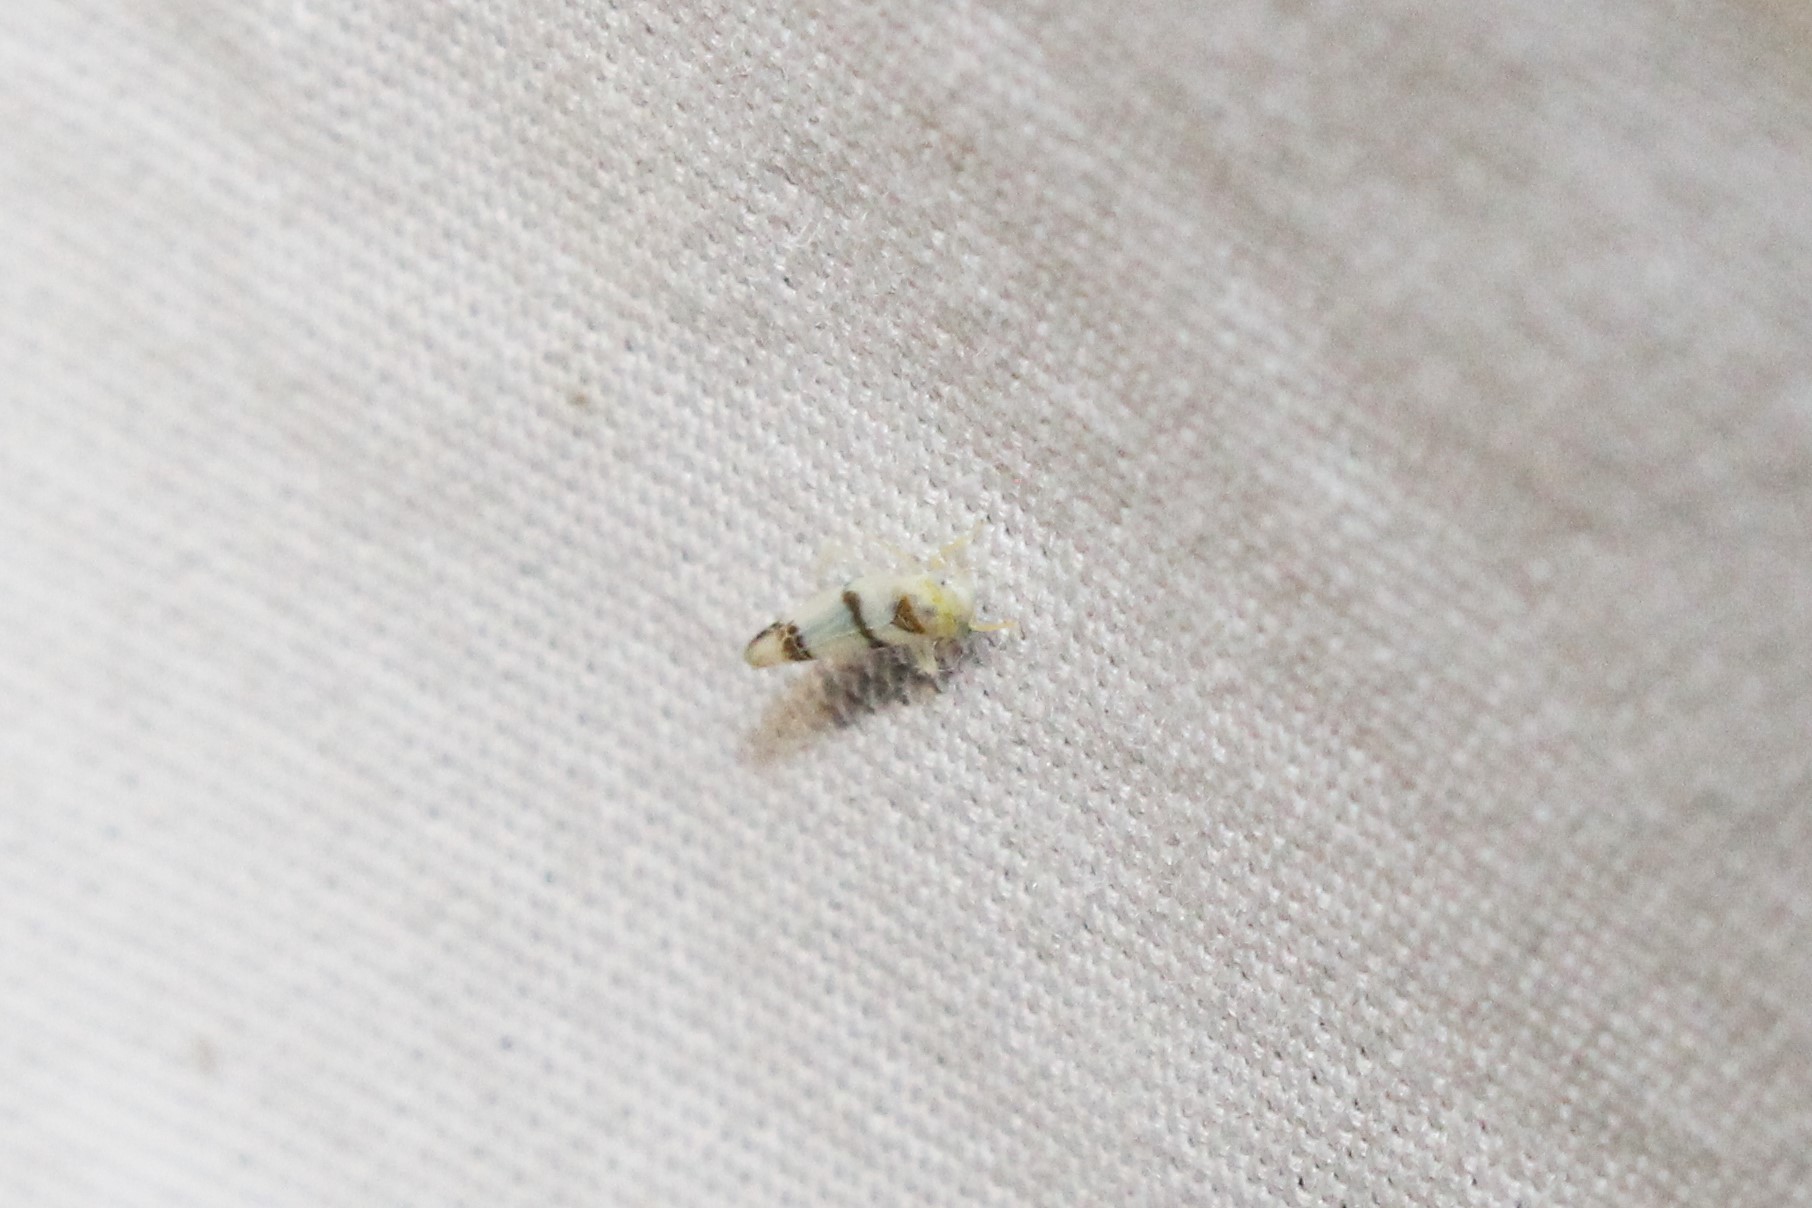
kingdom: Animalia
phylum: Arthropoda
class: Insecta
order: Hemiptera
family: Cicadellidae
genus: Empoa
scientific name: Empoa casta
